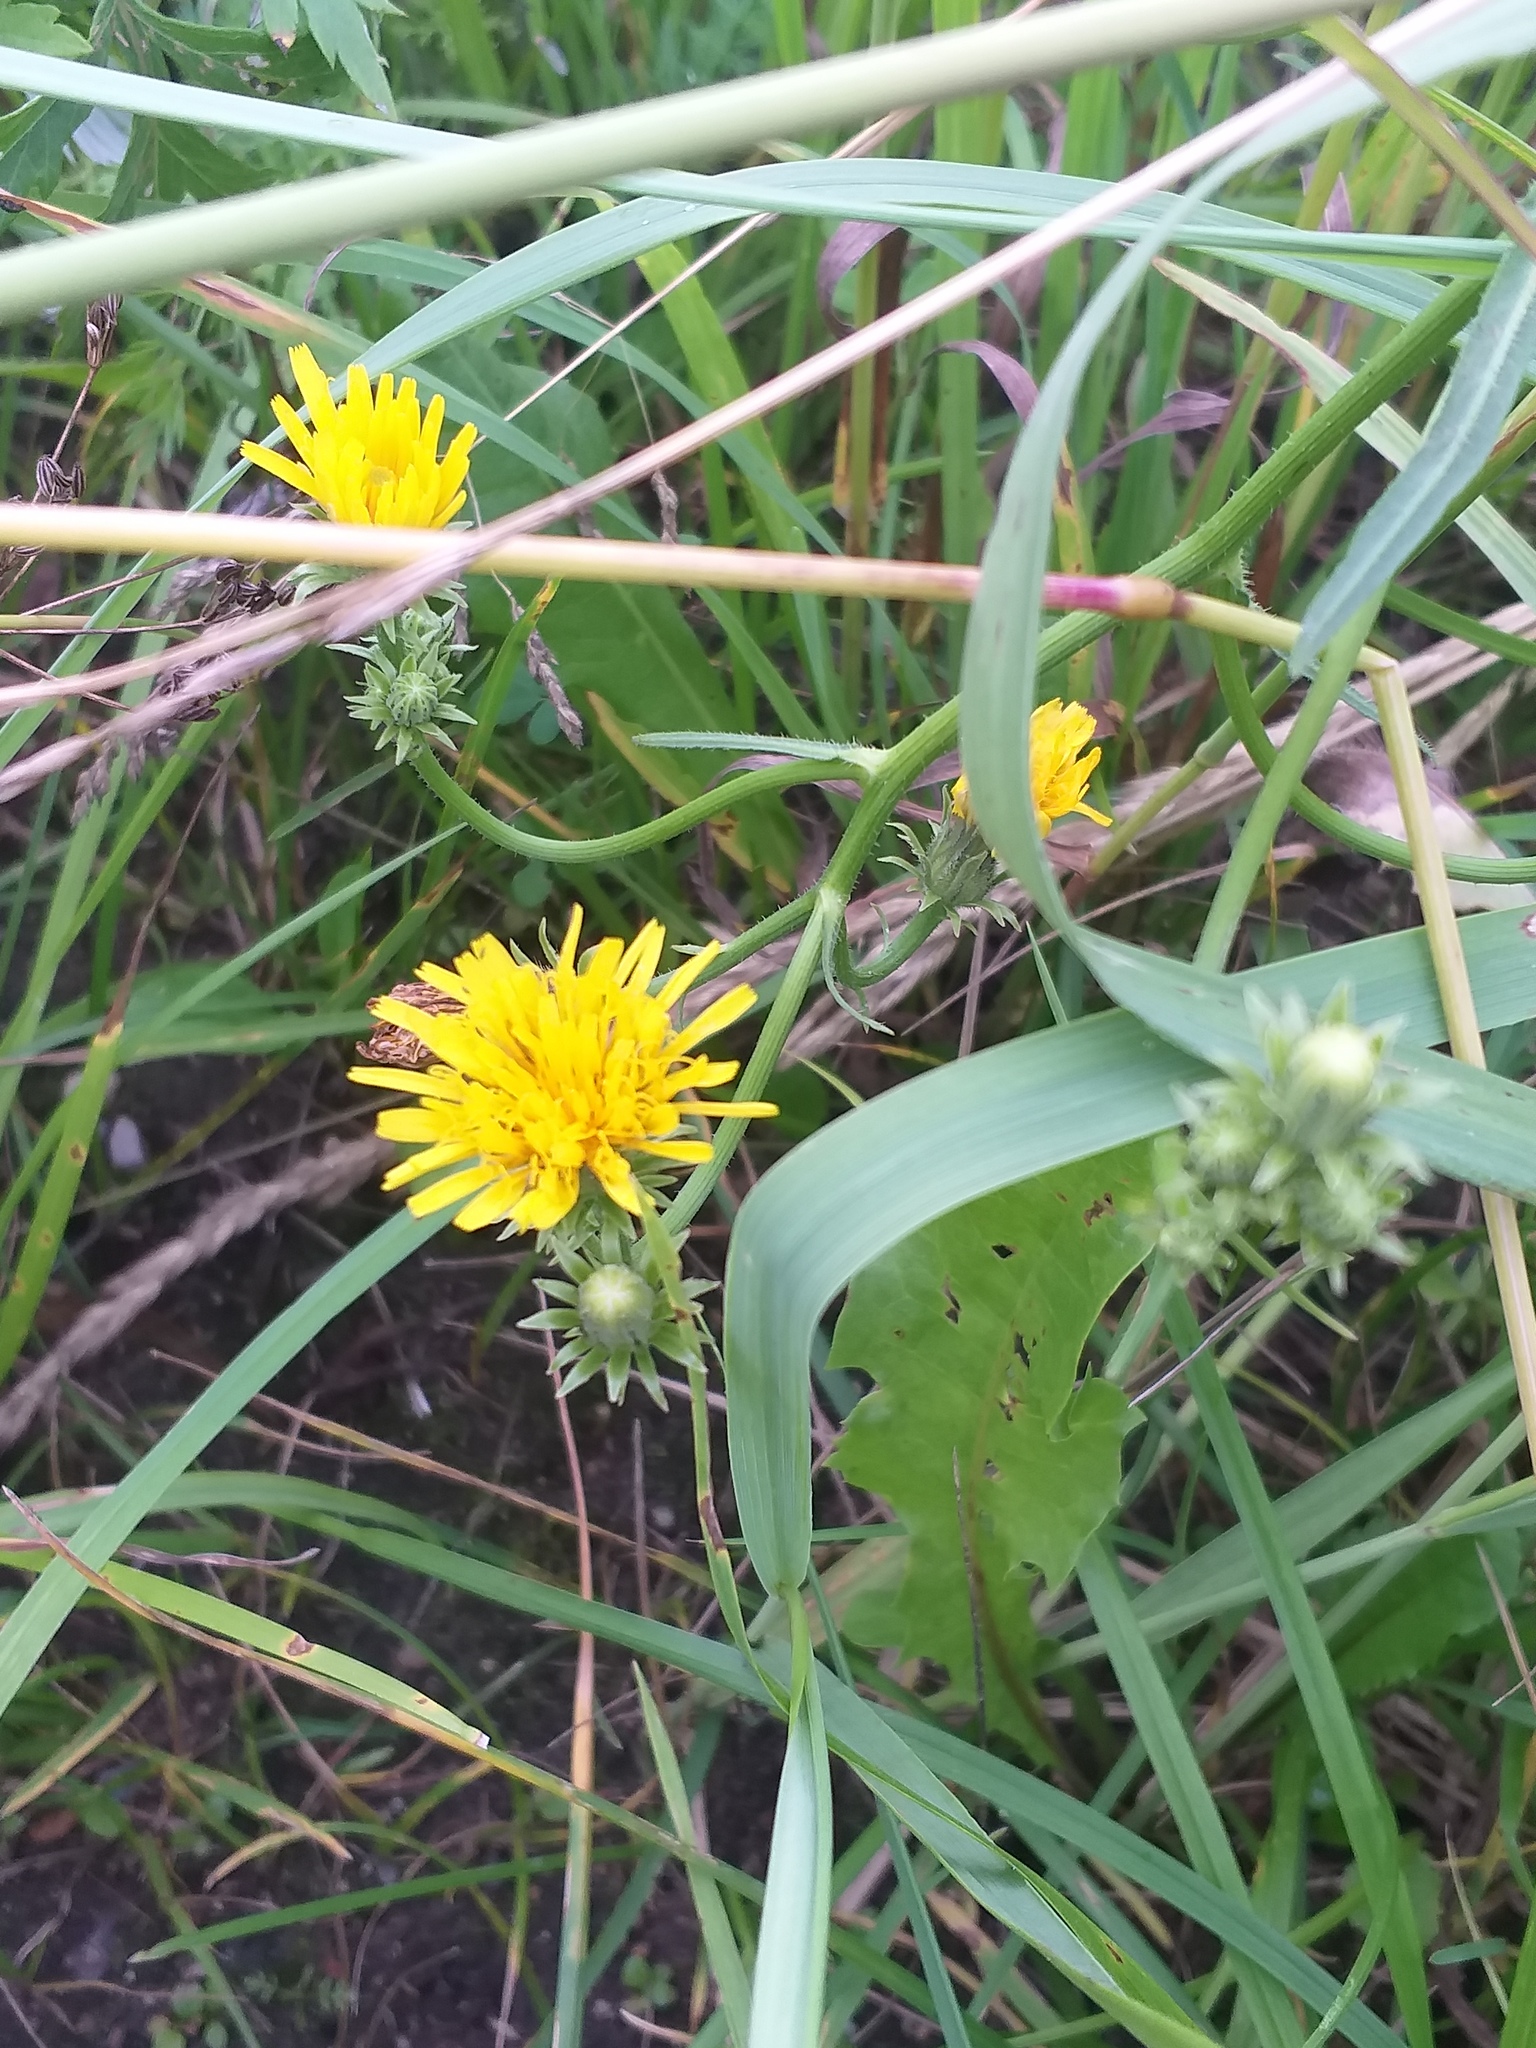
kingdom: Plantae
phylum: Tracheophyta
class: Magnoliopsida
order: Asterales
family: Asteraceae
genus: Picris
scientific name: Picris hieracioides
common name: Hawkweed oxtongue
